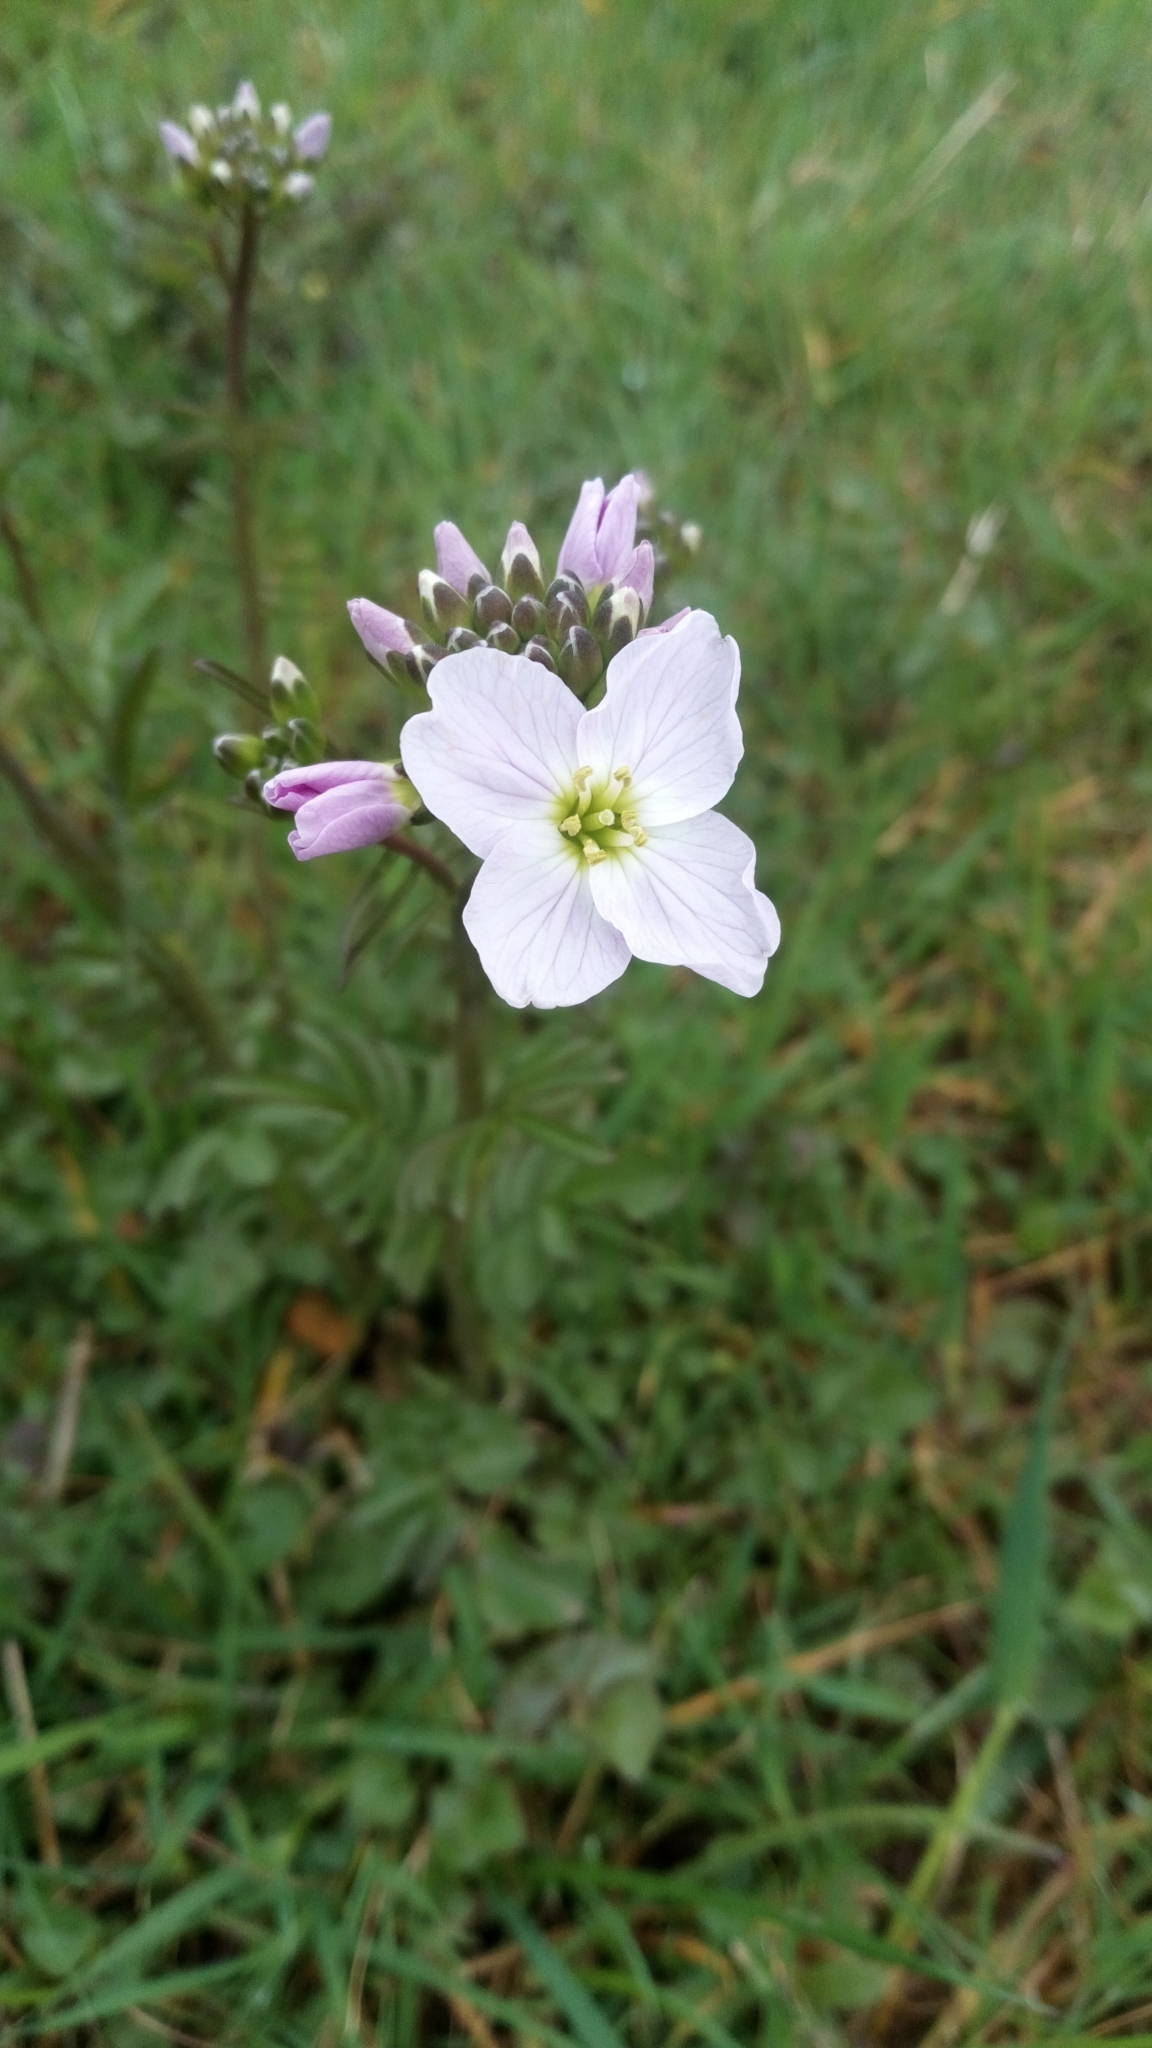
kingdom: Plantae
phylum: Tracheophyta
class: Magnoliopsida
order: Brassicales
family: Brassicaceae
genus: Cardamine
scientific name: Cardamine pratensis
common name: Cuckoo flower
